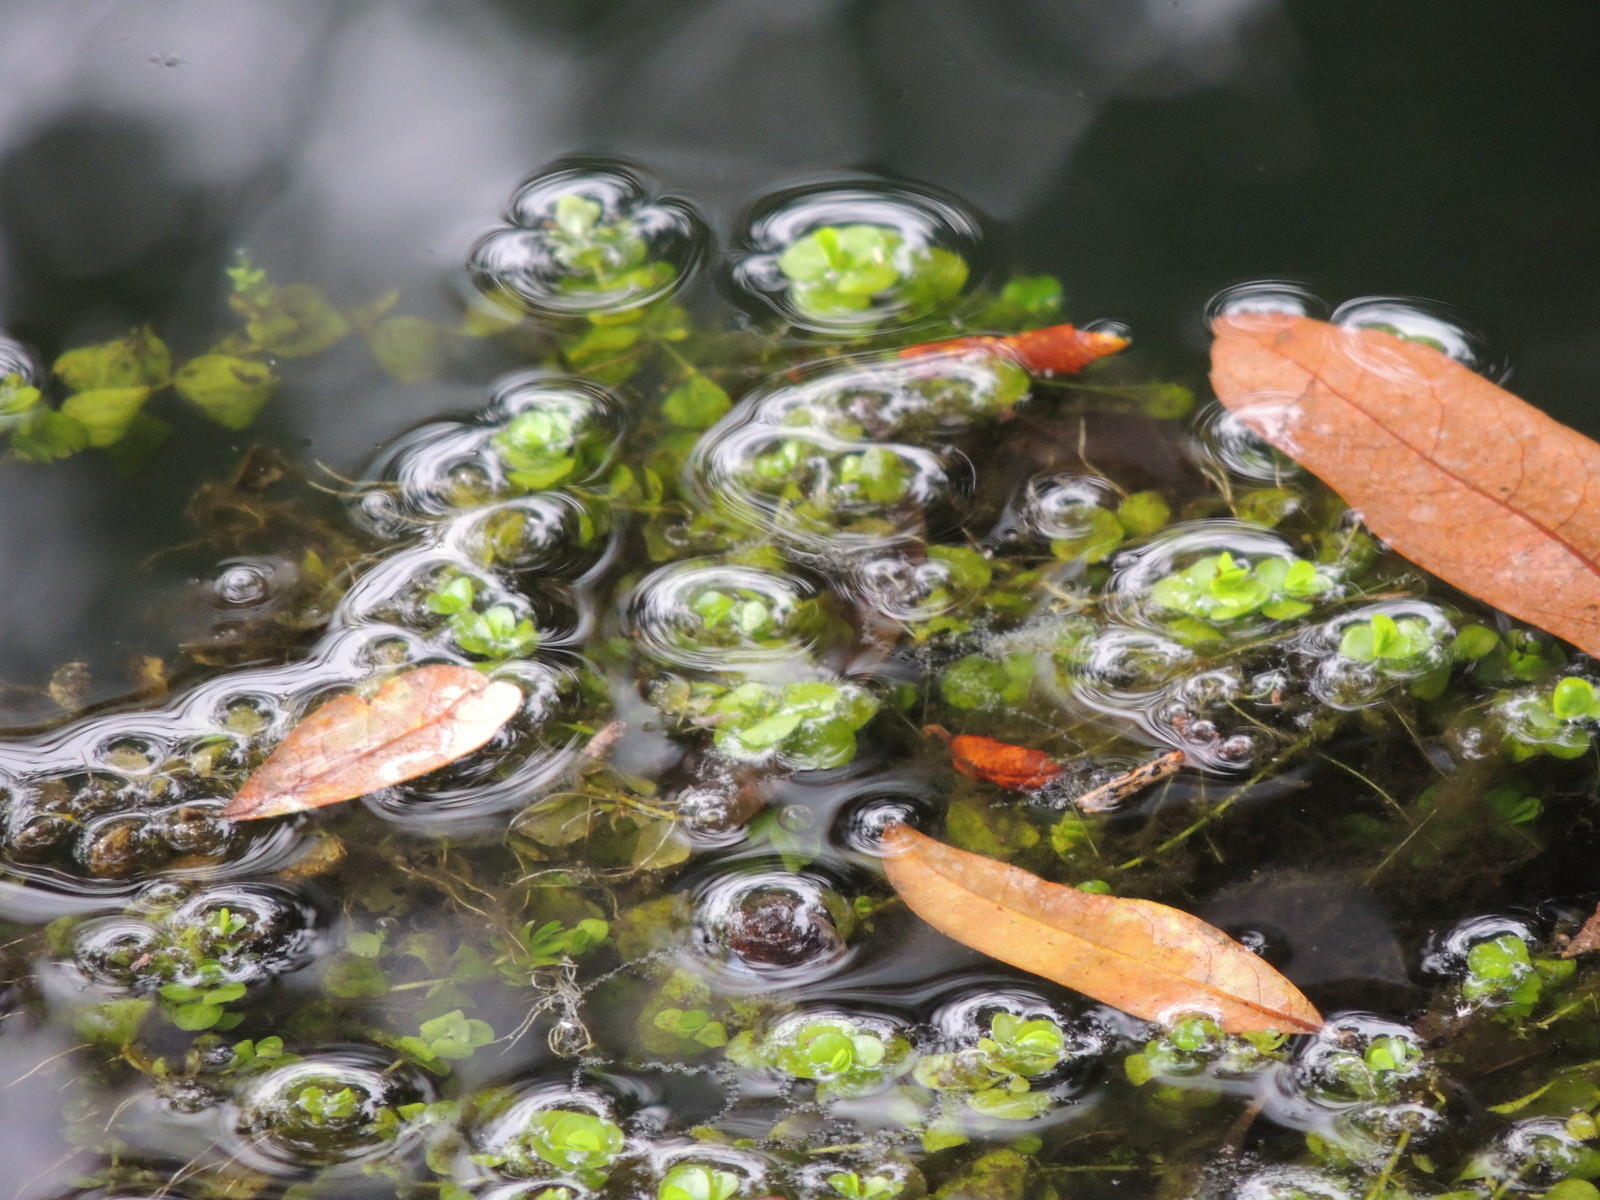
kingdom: Plantae
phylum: Tracheophyta
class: Magnoliopsida
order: Lamiales
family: Linderniaceae
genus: Micranthemum
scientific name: Micranthemum umbrosum
